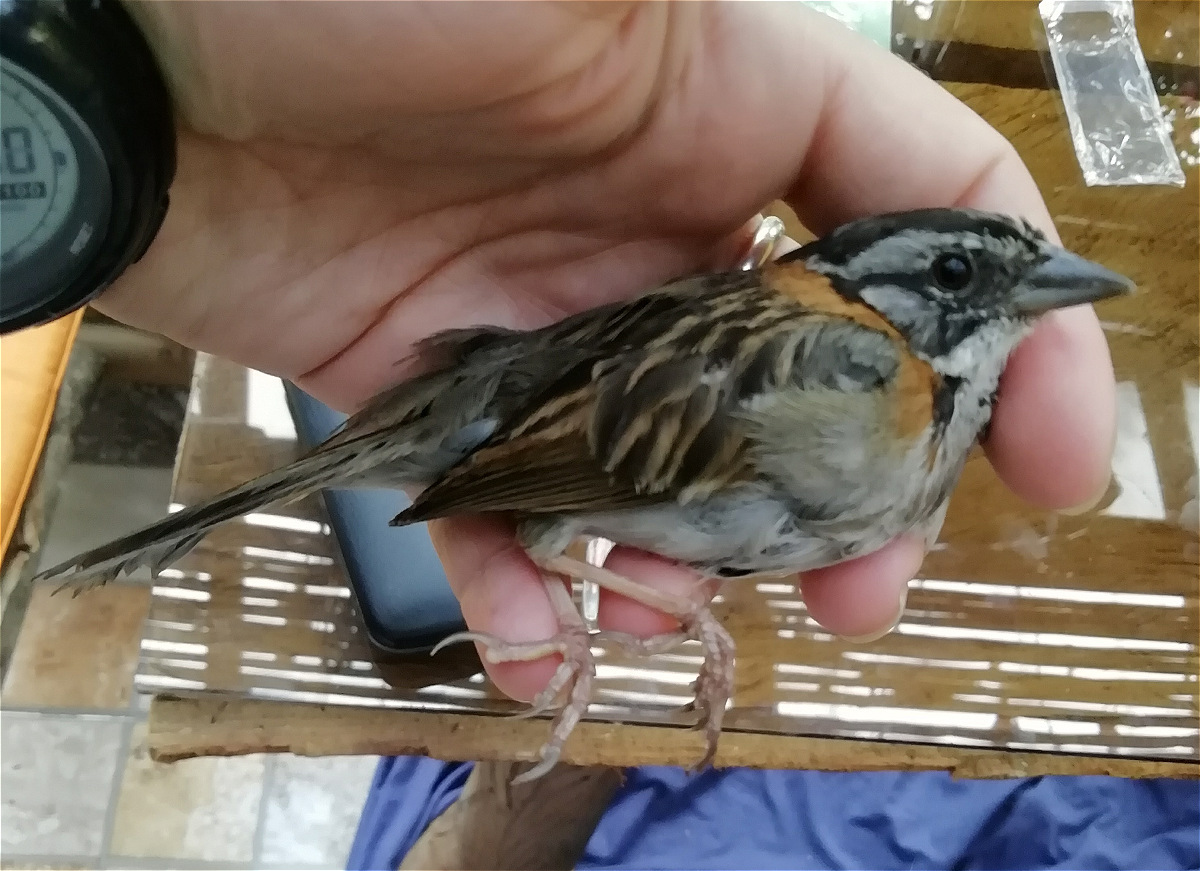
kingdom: Animalia
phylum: Chordata
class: Aves
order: Passeriformes
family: Passerellidae
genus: Zonotrichia
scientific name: Zonotrichia capensis
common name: Rufous-collared sparrow
